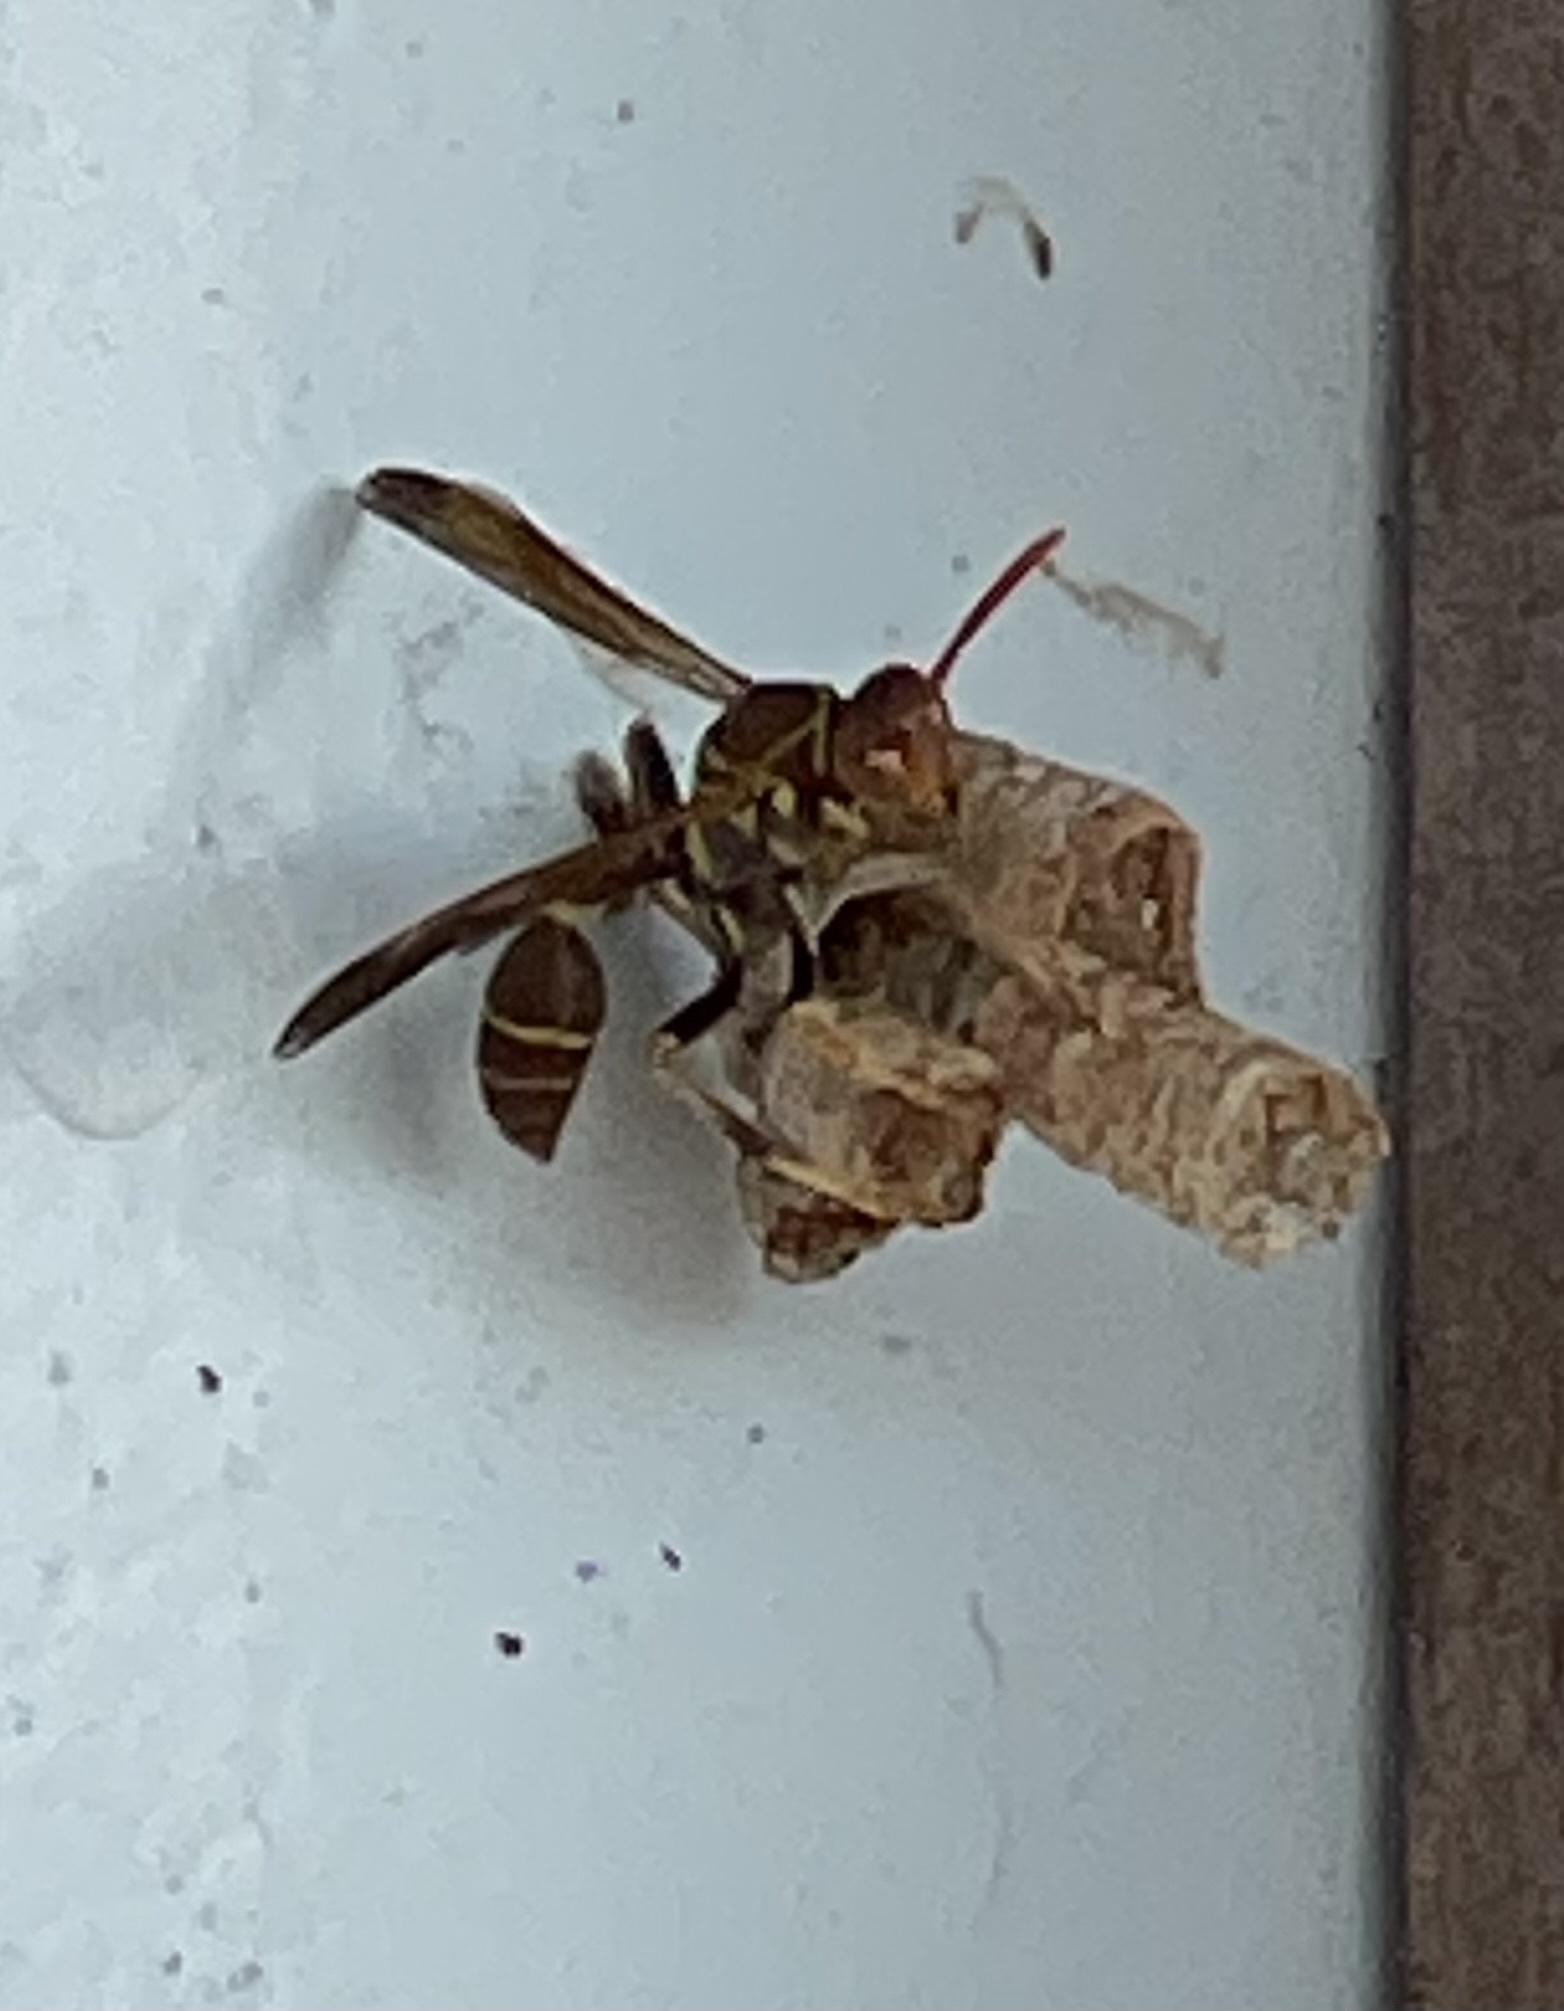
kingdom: Animalia
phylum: Arthropoda
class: Insecta
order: Hymenoptera
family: Vespidae
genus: Mischocyttarus
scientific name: Mischocyttarus mexicanus
